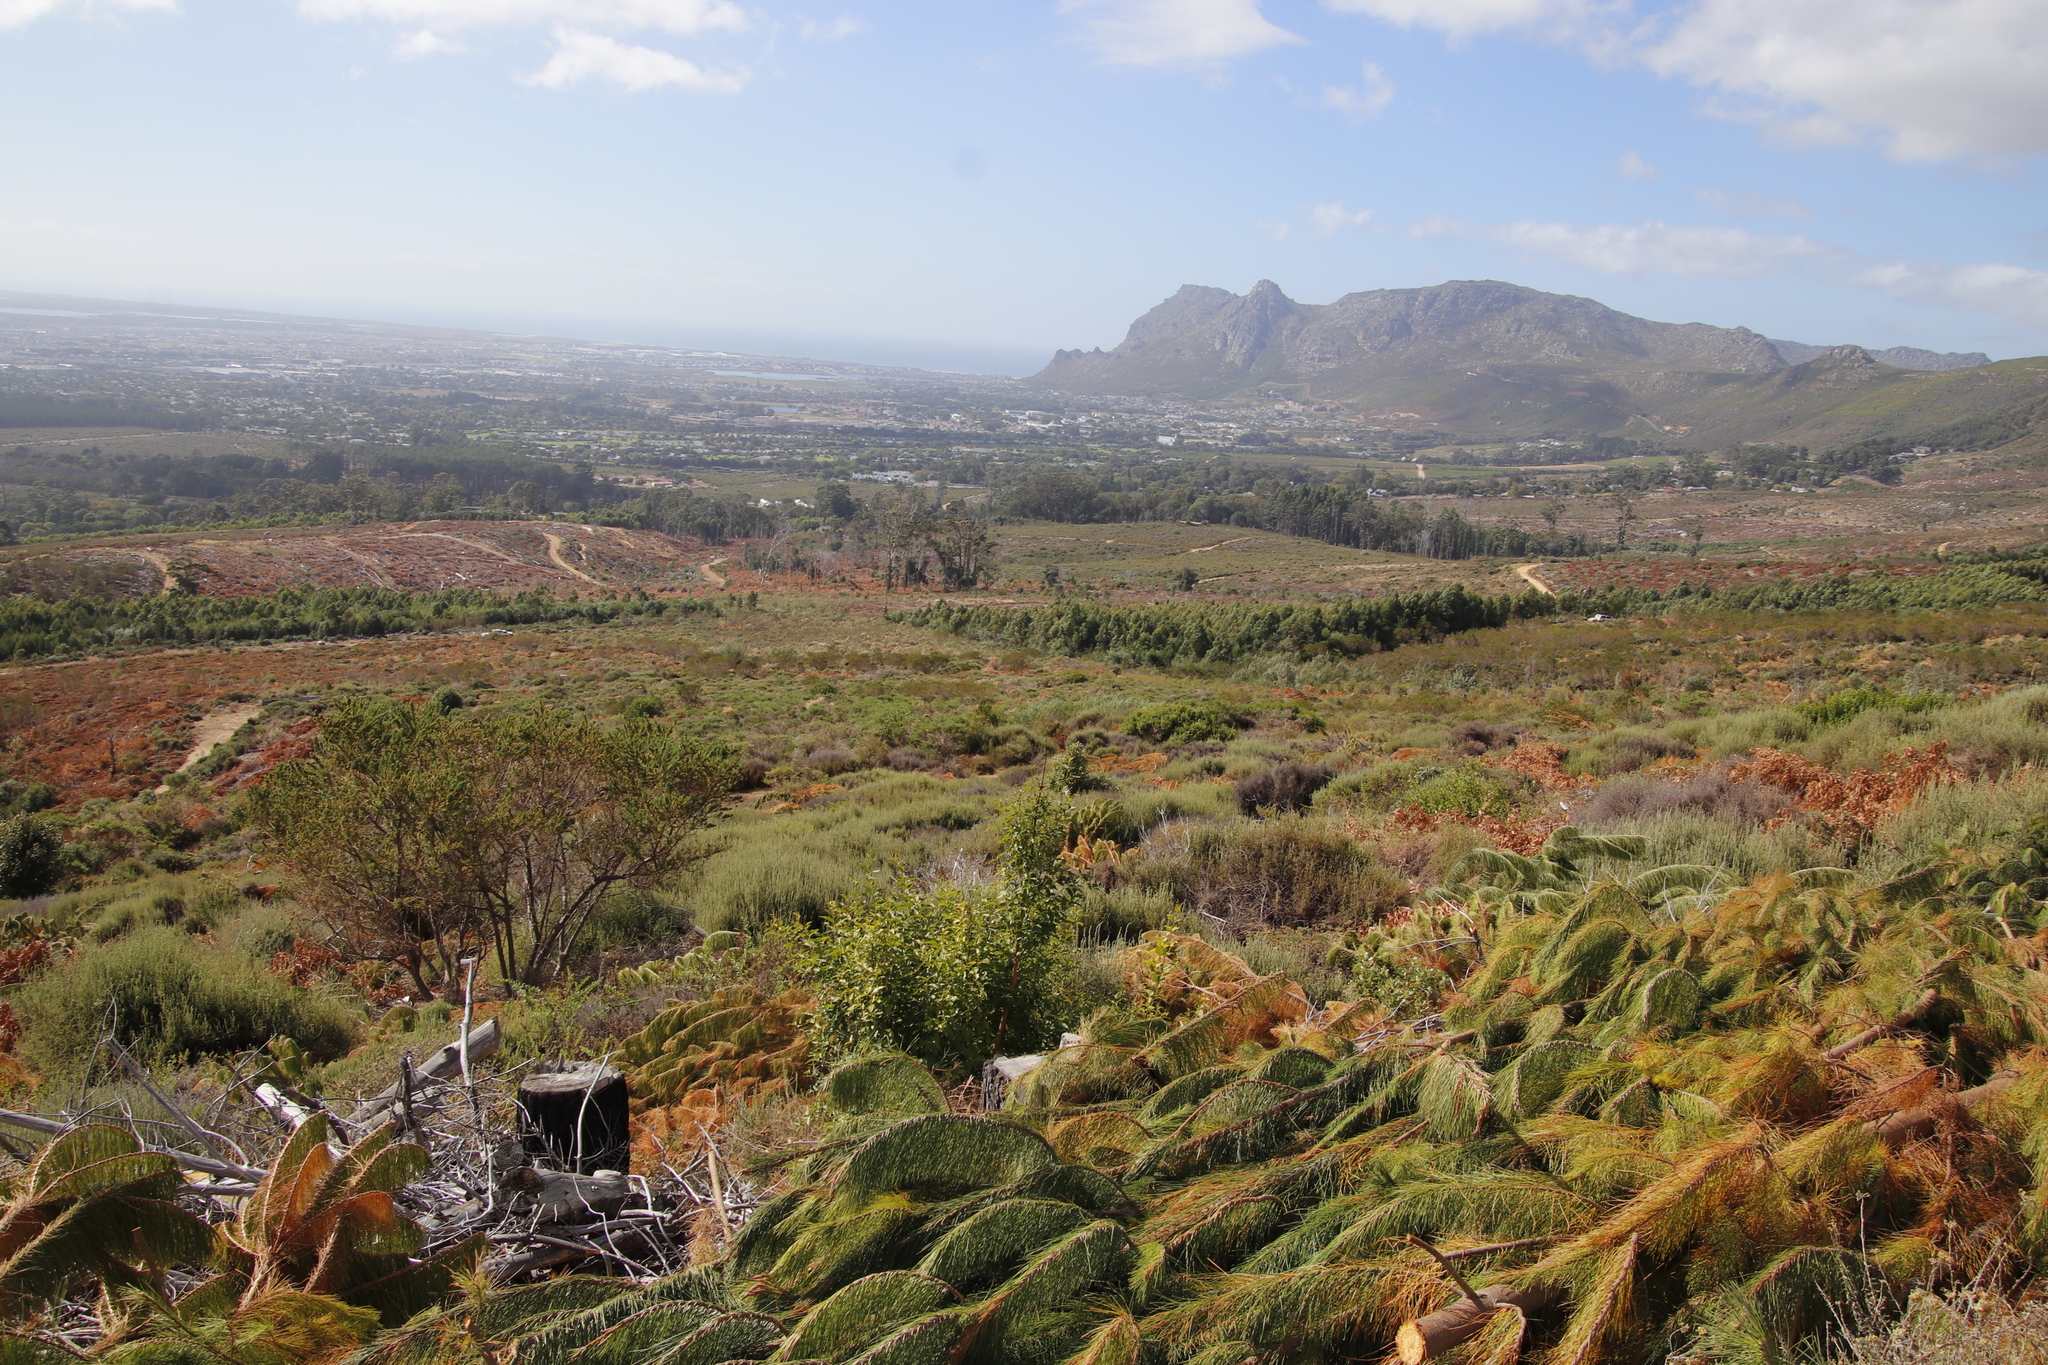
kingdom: Plantae
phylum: Tracheophyta
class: Magnoliopsida
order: Lamiales
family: Stilbaceae
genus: Halleria
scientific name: Halleria lucida
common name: Tree fuschia
